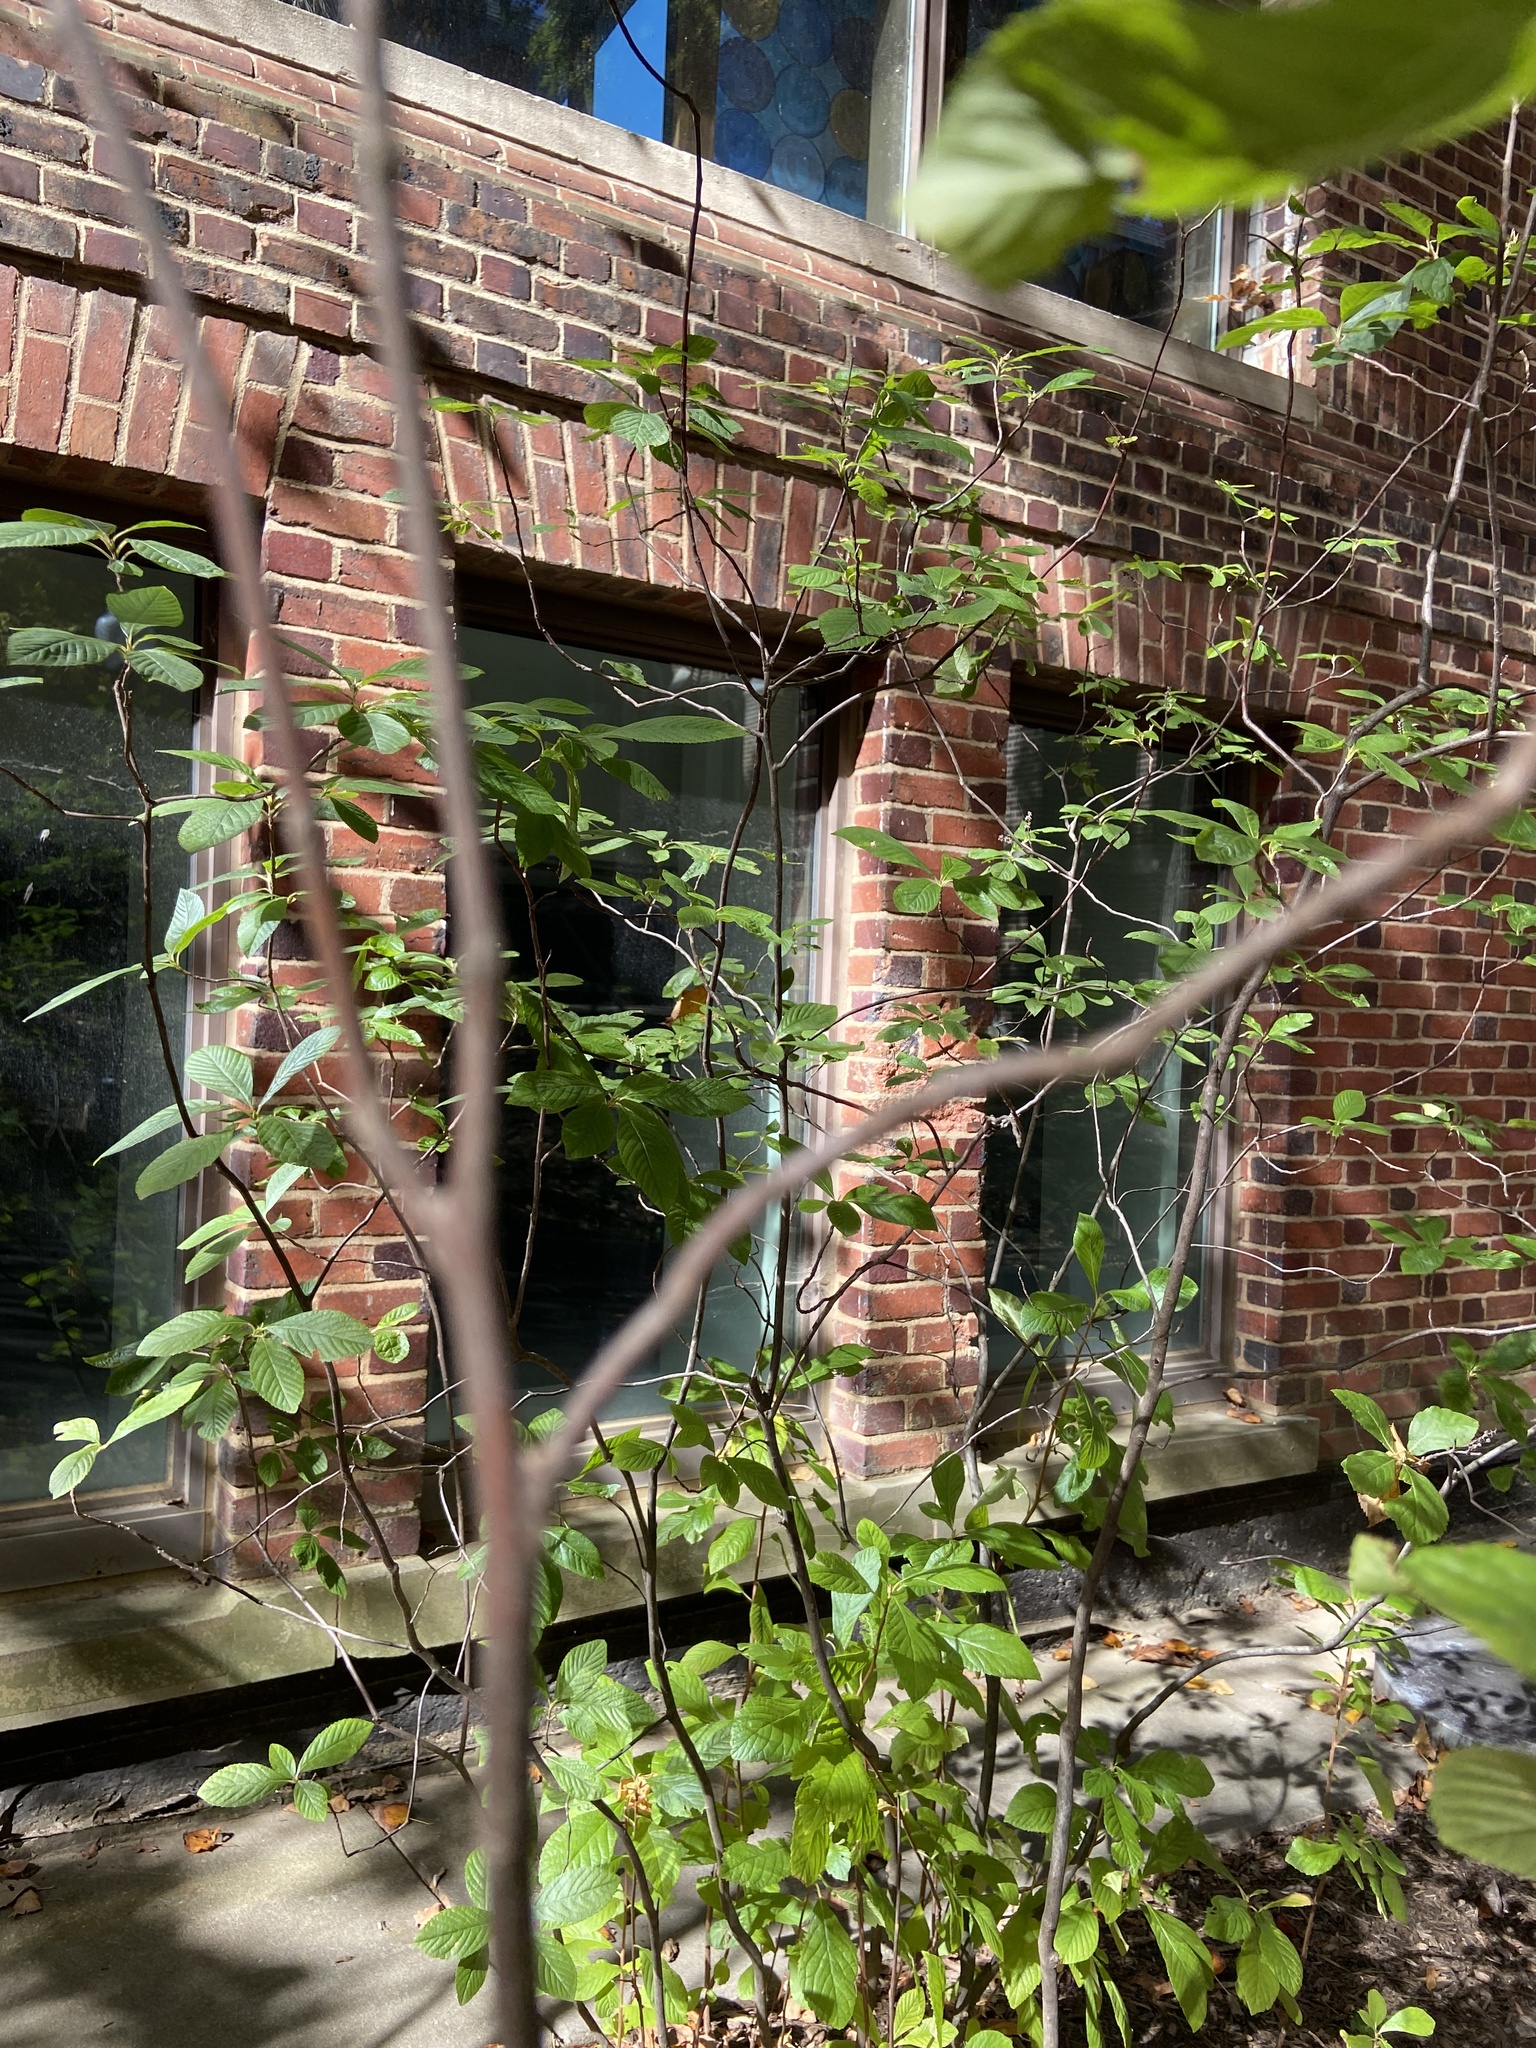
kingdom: Plantae
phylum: Tracheophyta
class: Magnoliopsida
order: Ericales
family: Clethraceae
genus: Clethra
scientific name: Clethra alnifolia
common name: Sweet pepperbush
